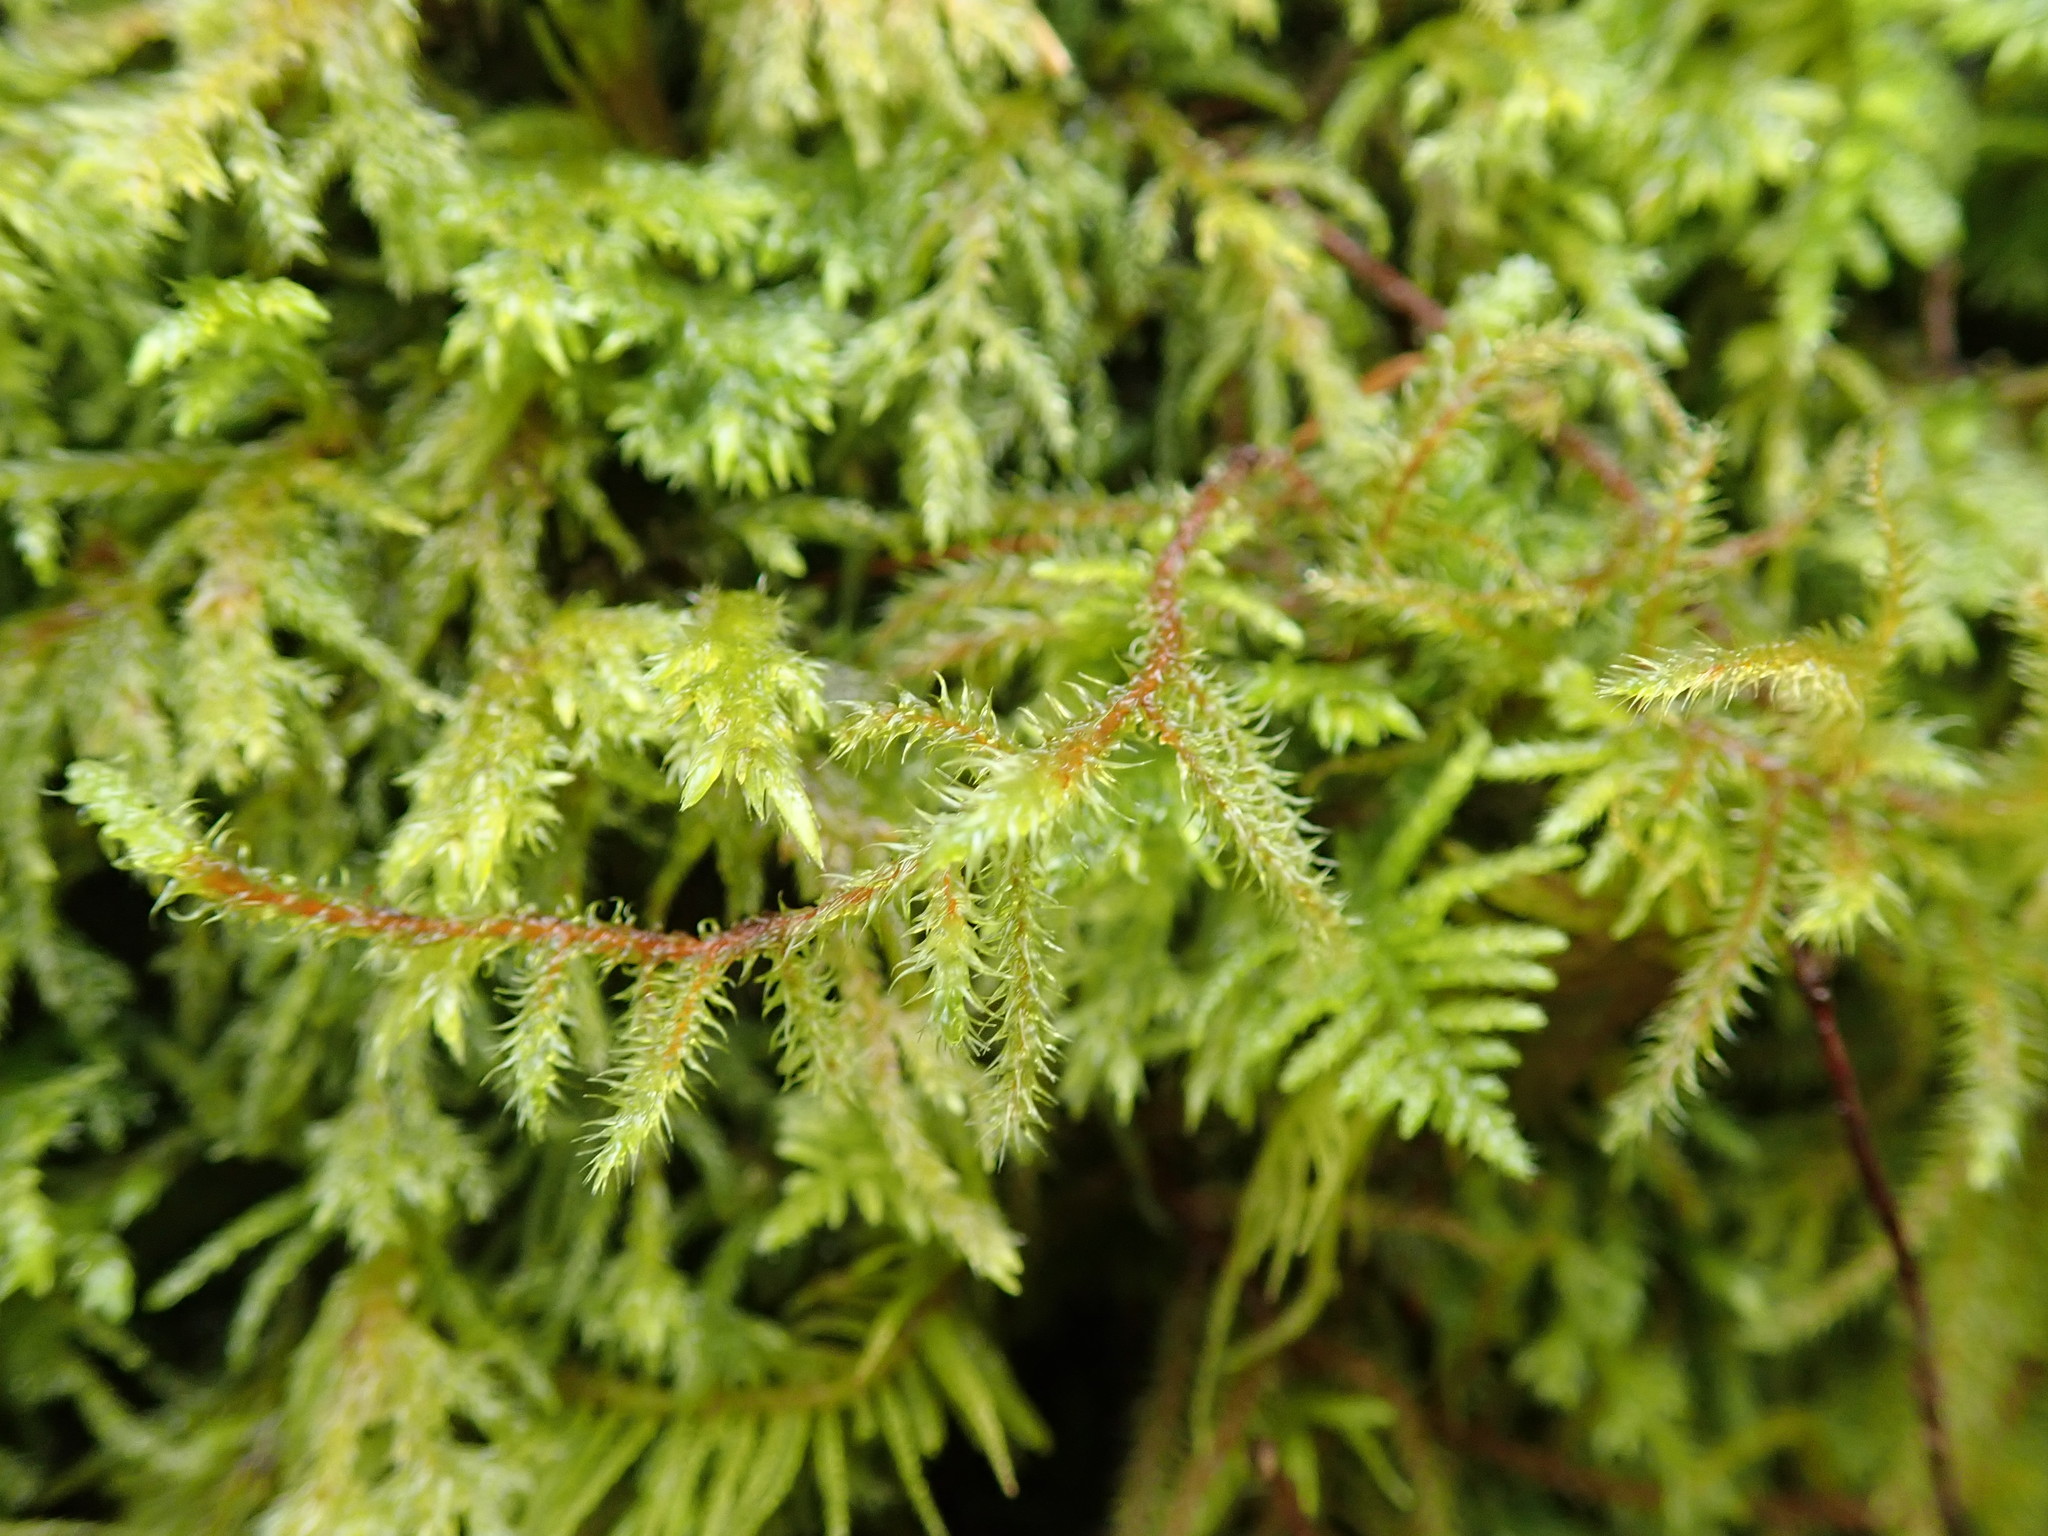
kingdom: Plantae
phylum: Bryophyta
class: Bryopsida
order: Hypnales
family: Hylocomiaceae
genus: Rhytidiadelphus
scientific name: Rhytidiadelphus loreus
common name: Lanky moss
